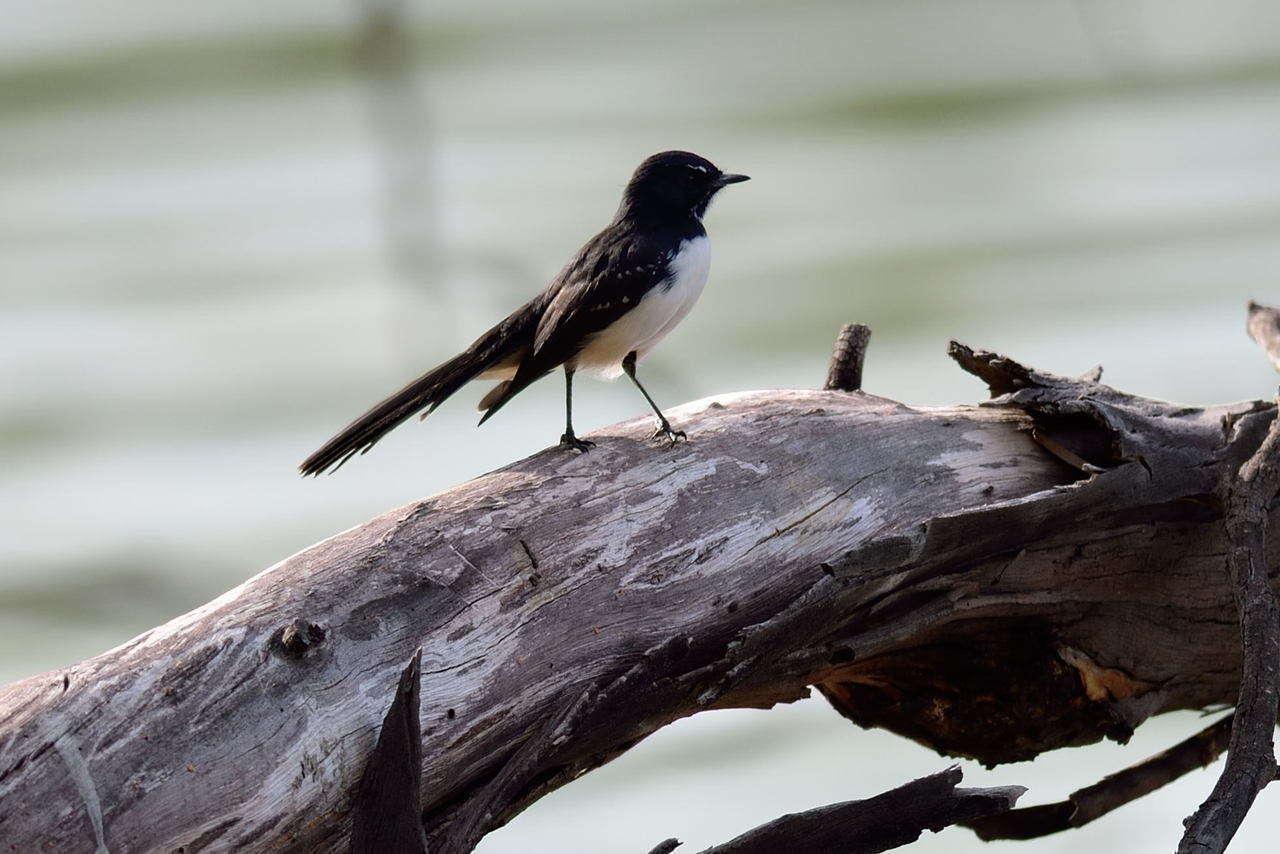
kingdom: Animalia
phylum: Chordata
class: Aves
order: Passeriformes
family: Rhipiduridae
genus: Rhipidura
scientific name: Rhipidura leucophrys
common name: Willie wagtail
